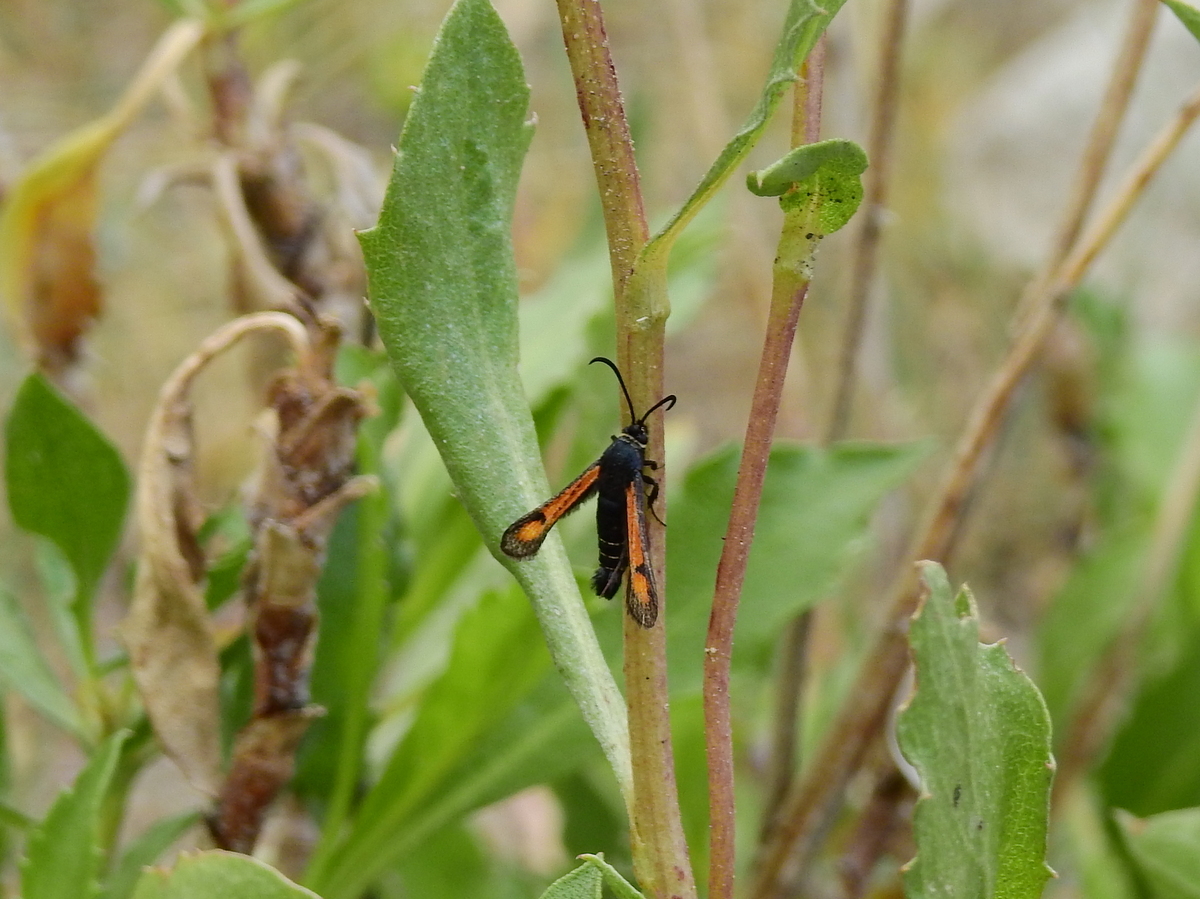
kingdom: Animalia
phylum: Arthropoda
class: Insecta
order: Lepidoptera
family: Sesiidae
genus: Carmenta
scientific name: Carmenta aurora
